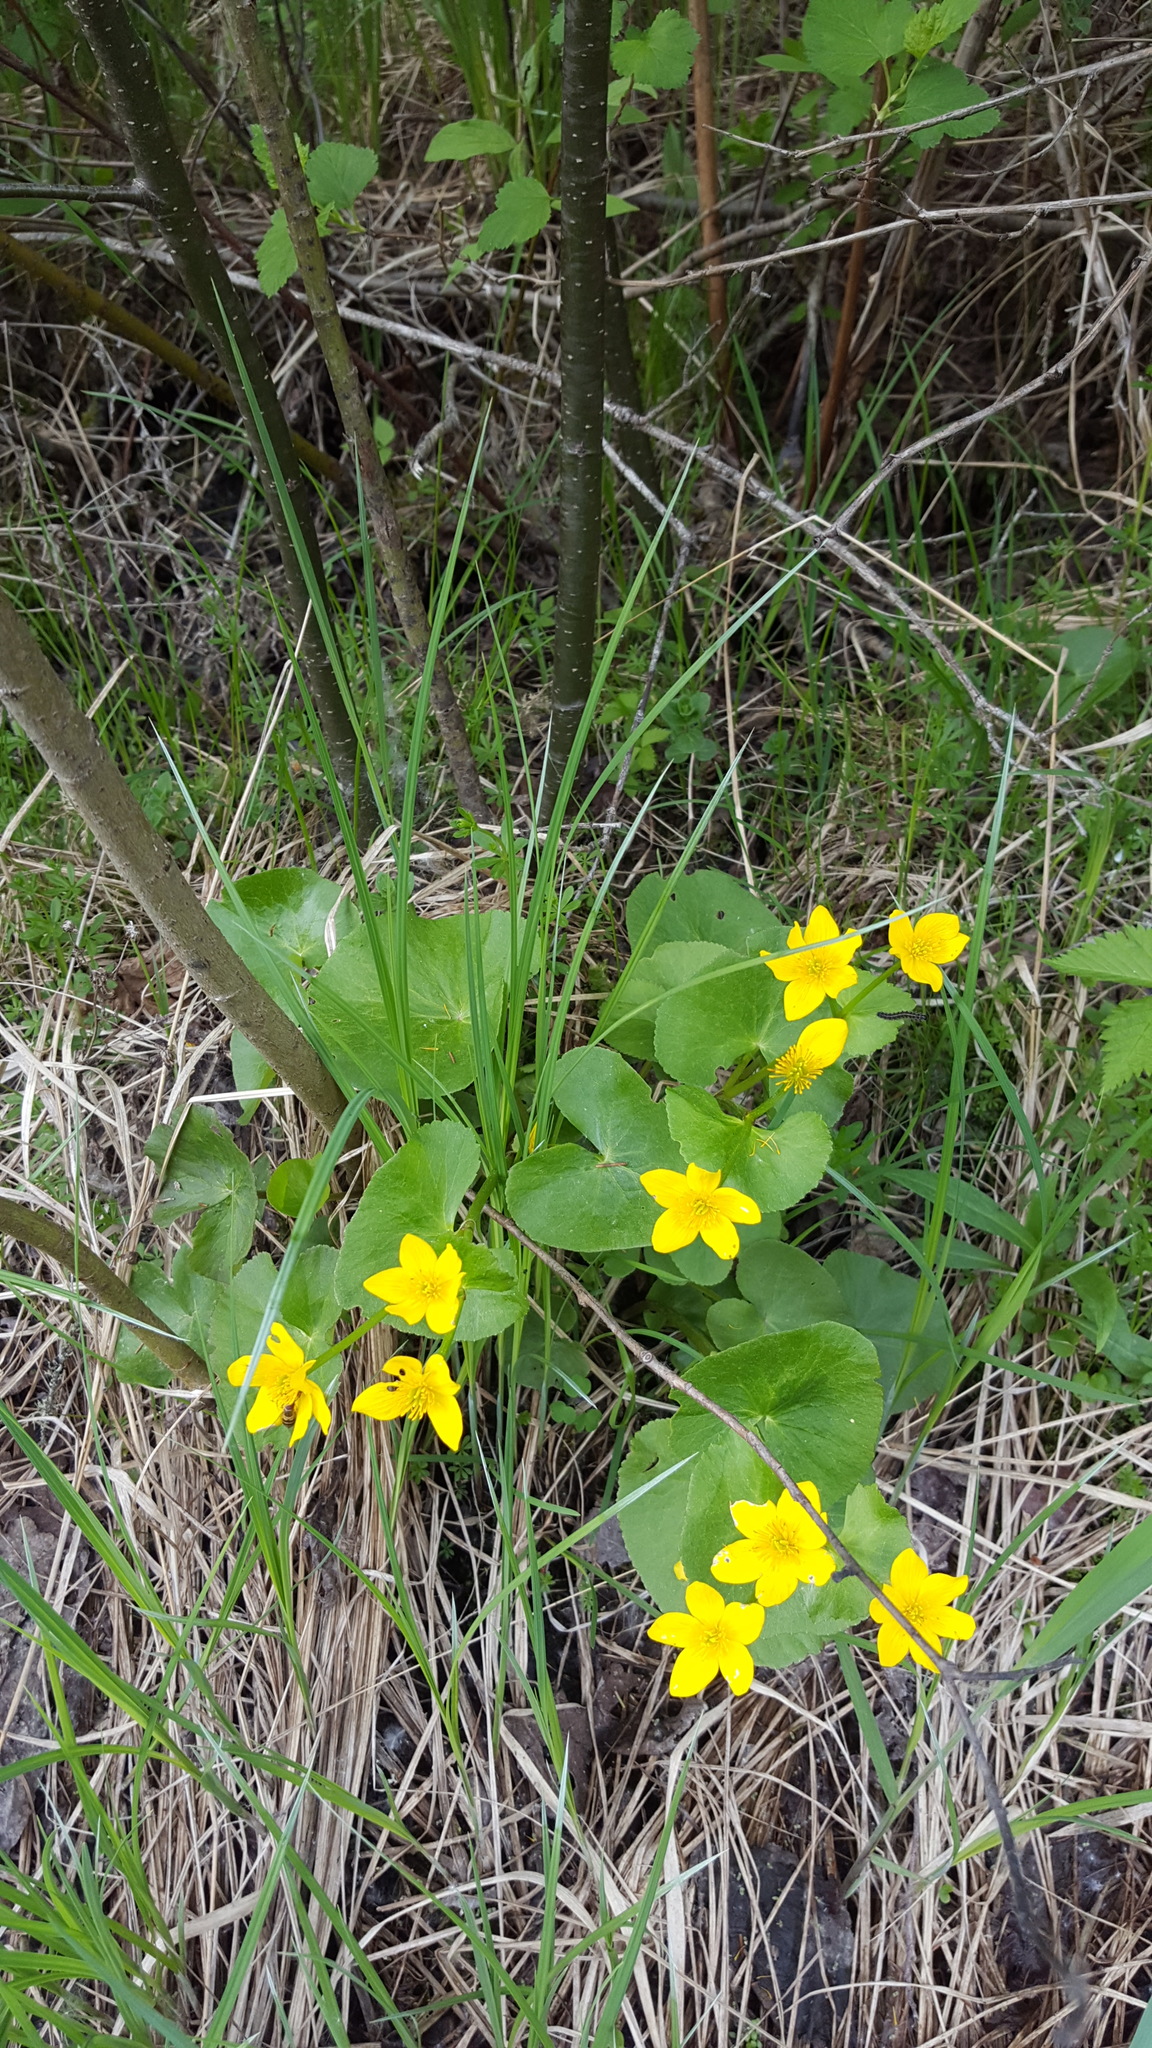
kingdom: Plantae
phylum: Tracheophyta
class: Magnoliopsida
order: Ranunculales
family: Ranunculaceae
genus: Caltha
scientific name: Caltha palustris
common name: Marsh marigold
